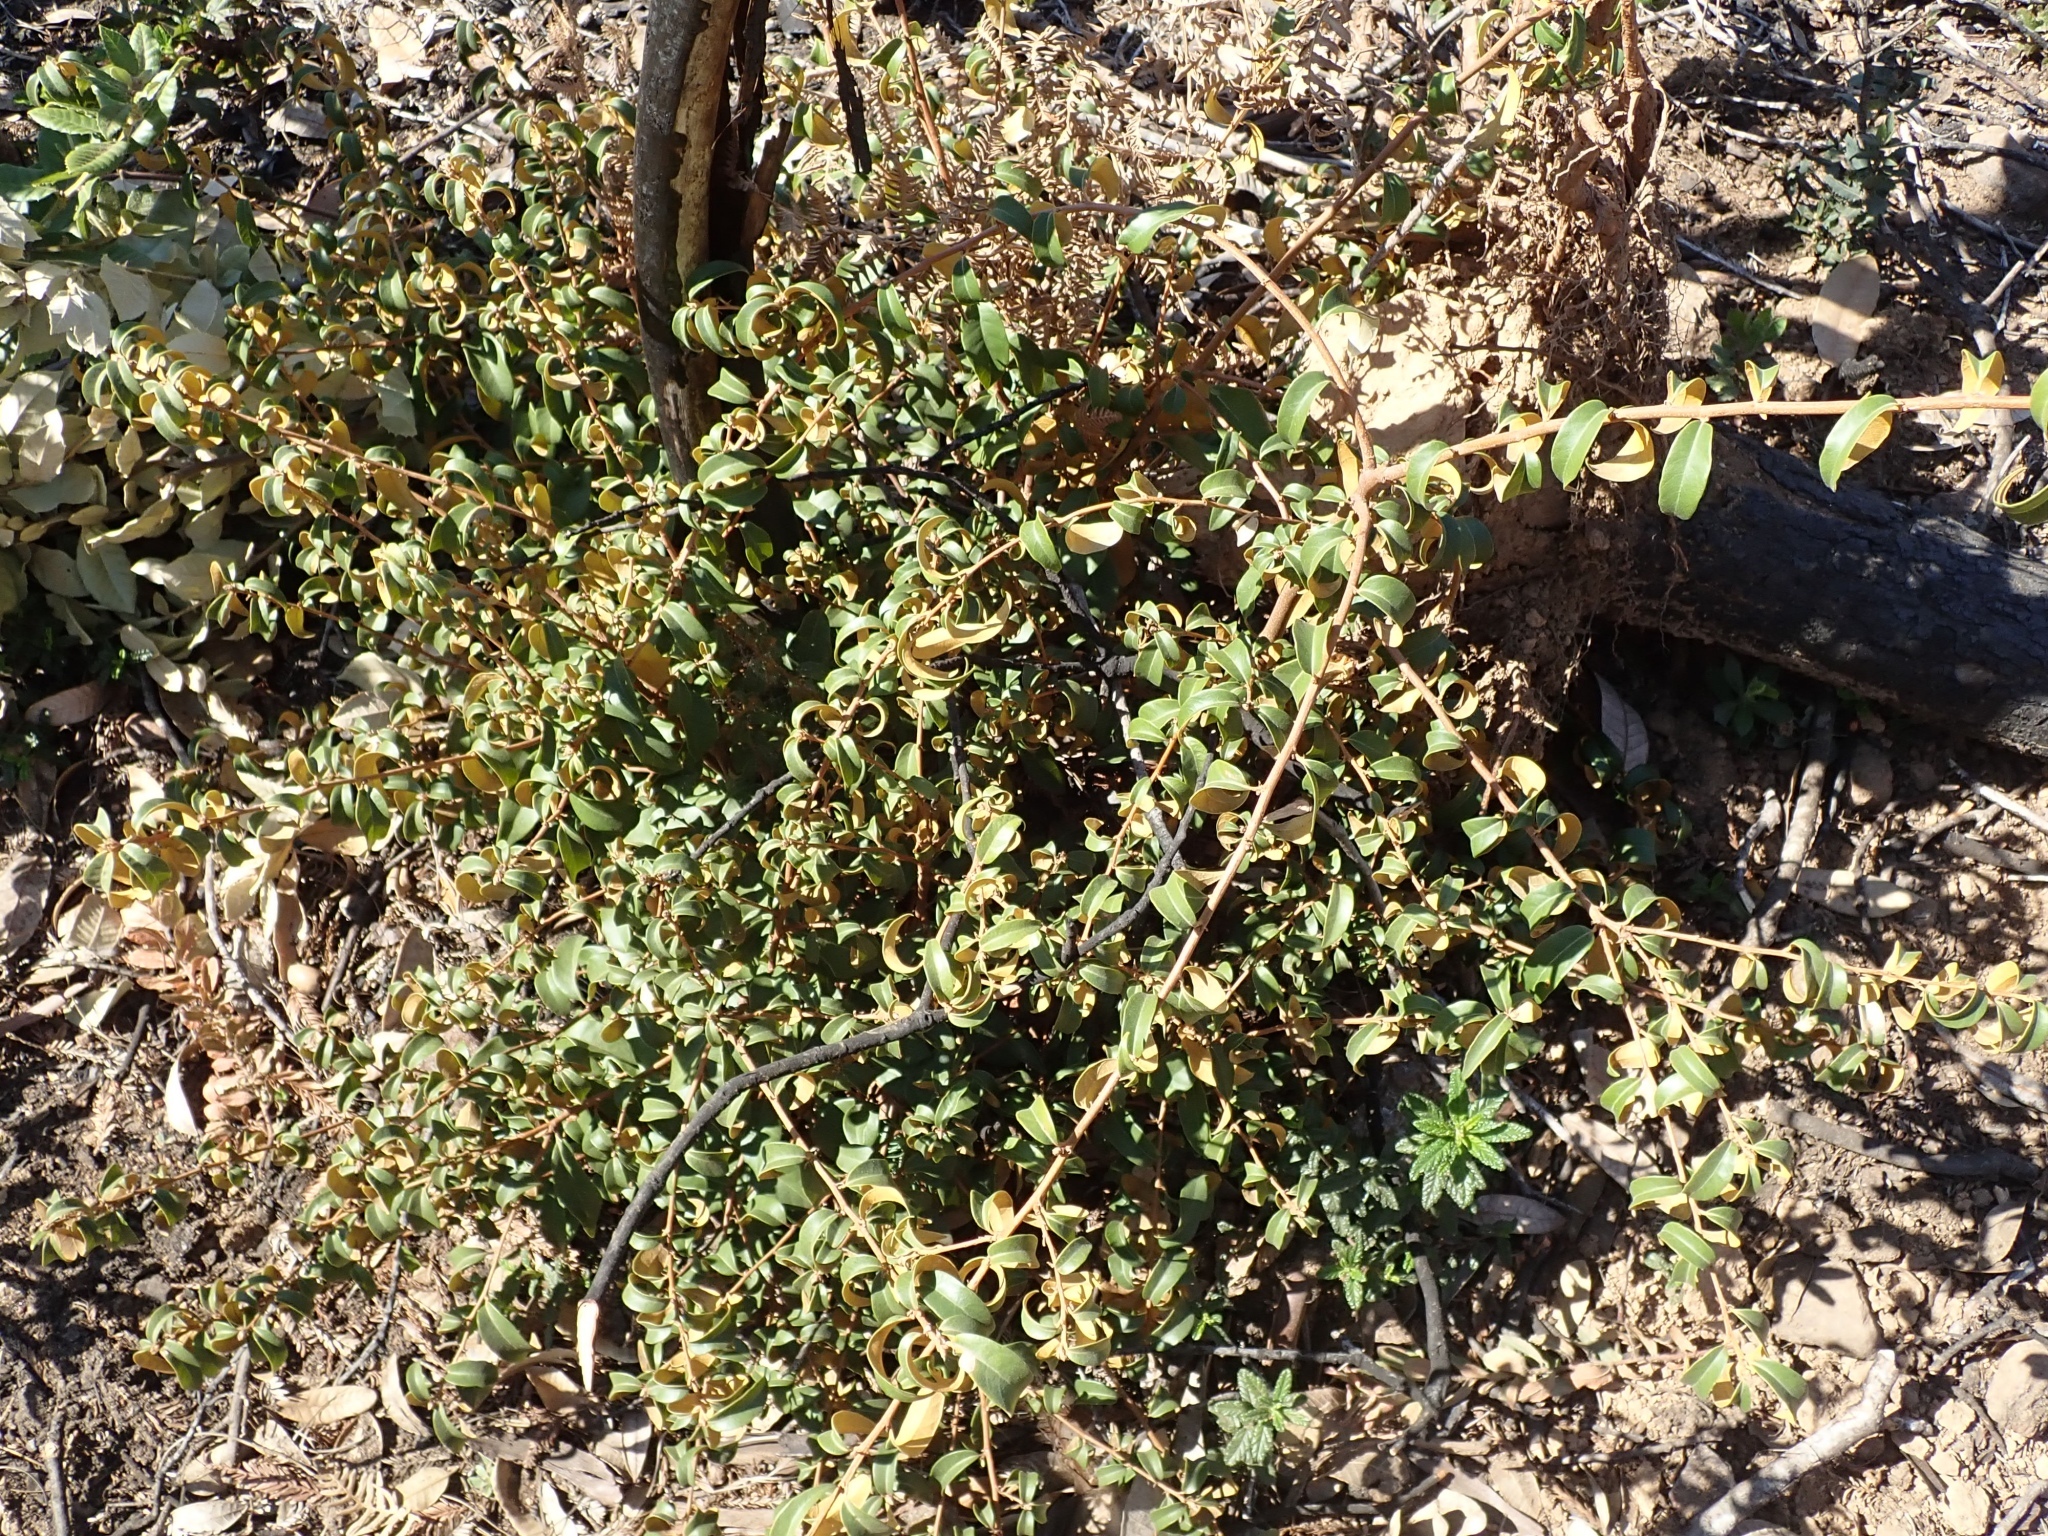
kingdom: Plantae
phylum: Tracheophyta
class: Magnoliopsida
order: Fagales
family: Fagaceae
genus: Chrysolepis
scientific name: Chrysolepis chrysophylla
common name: Giant chinquapin
